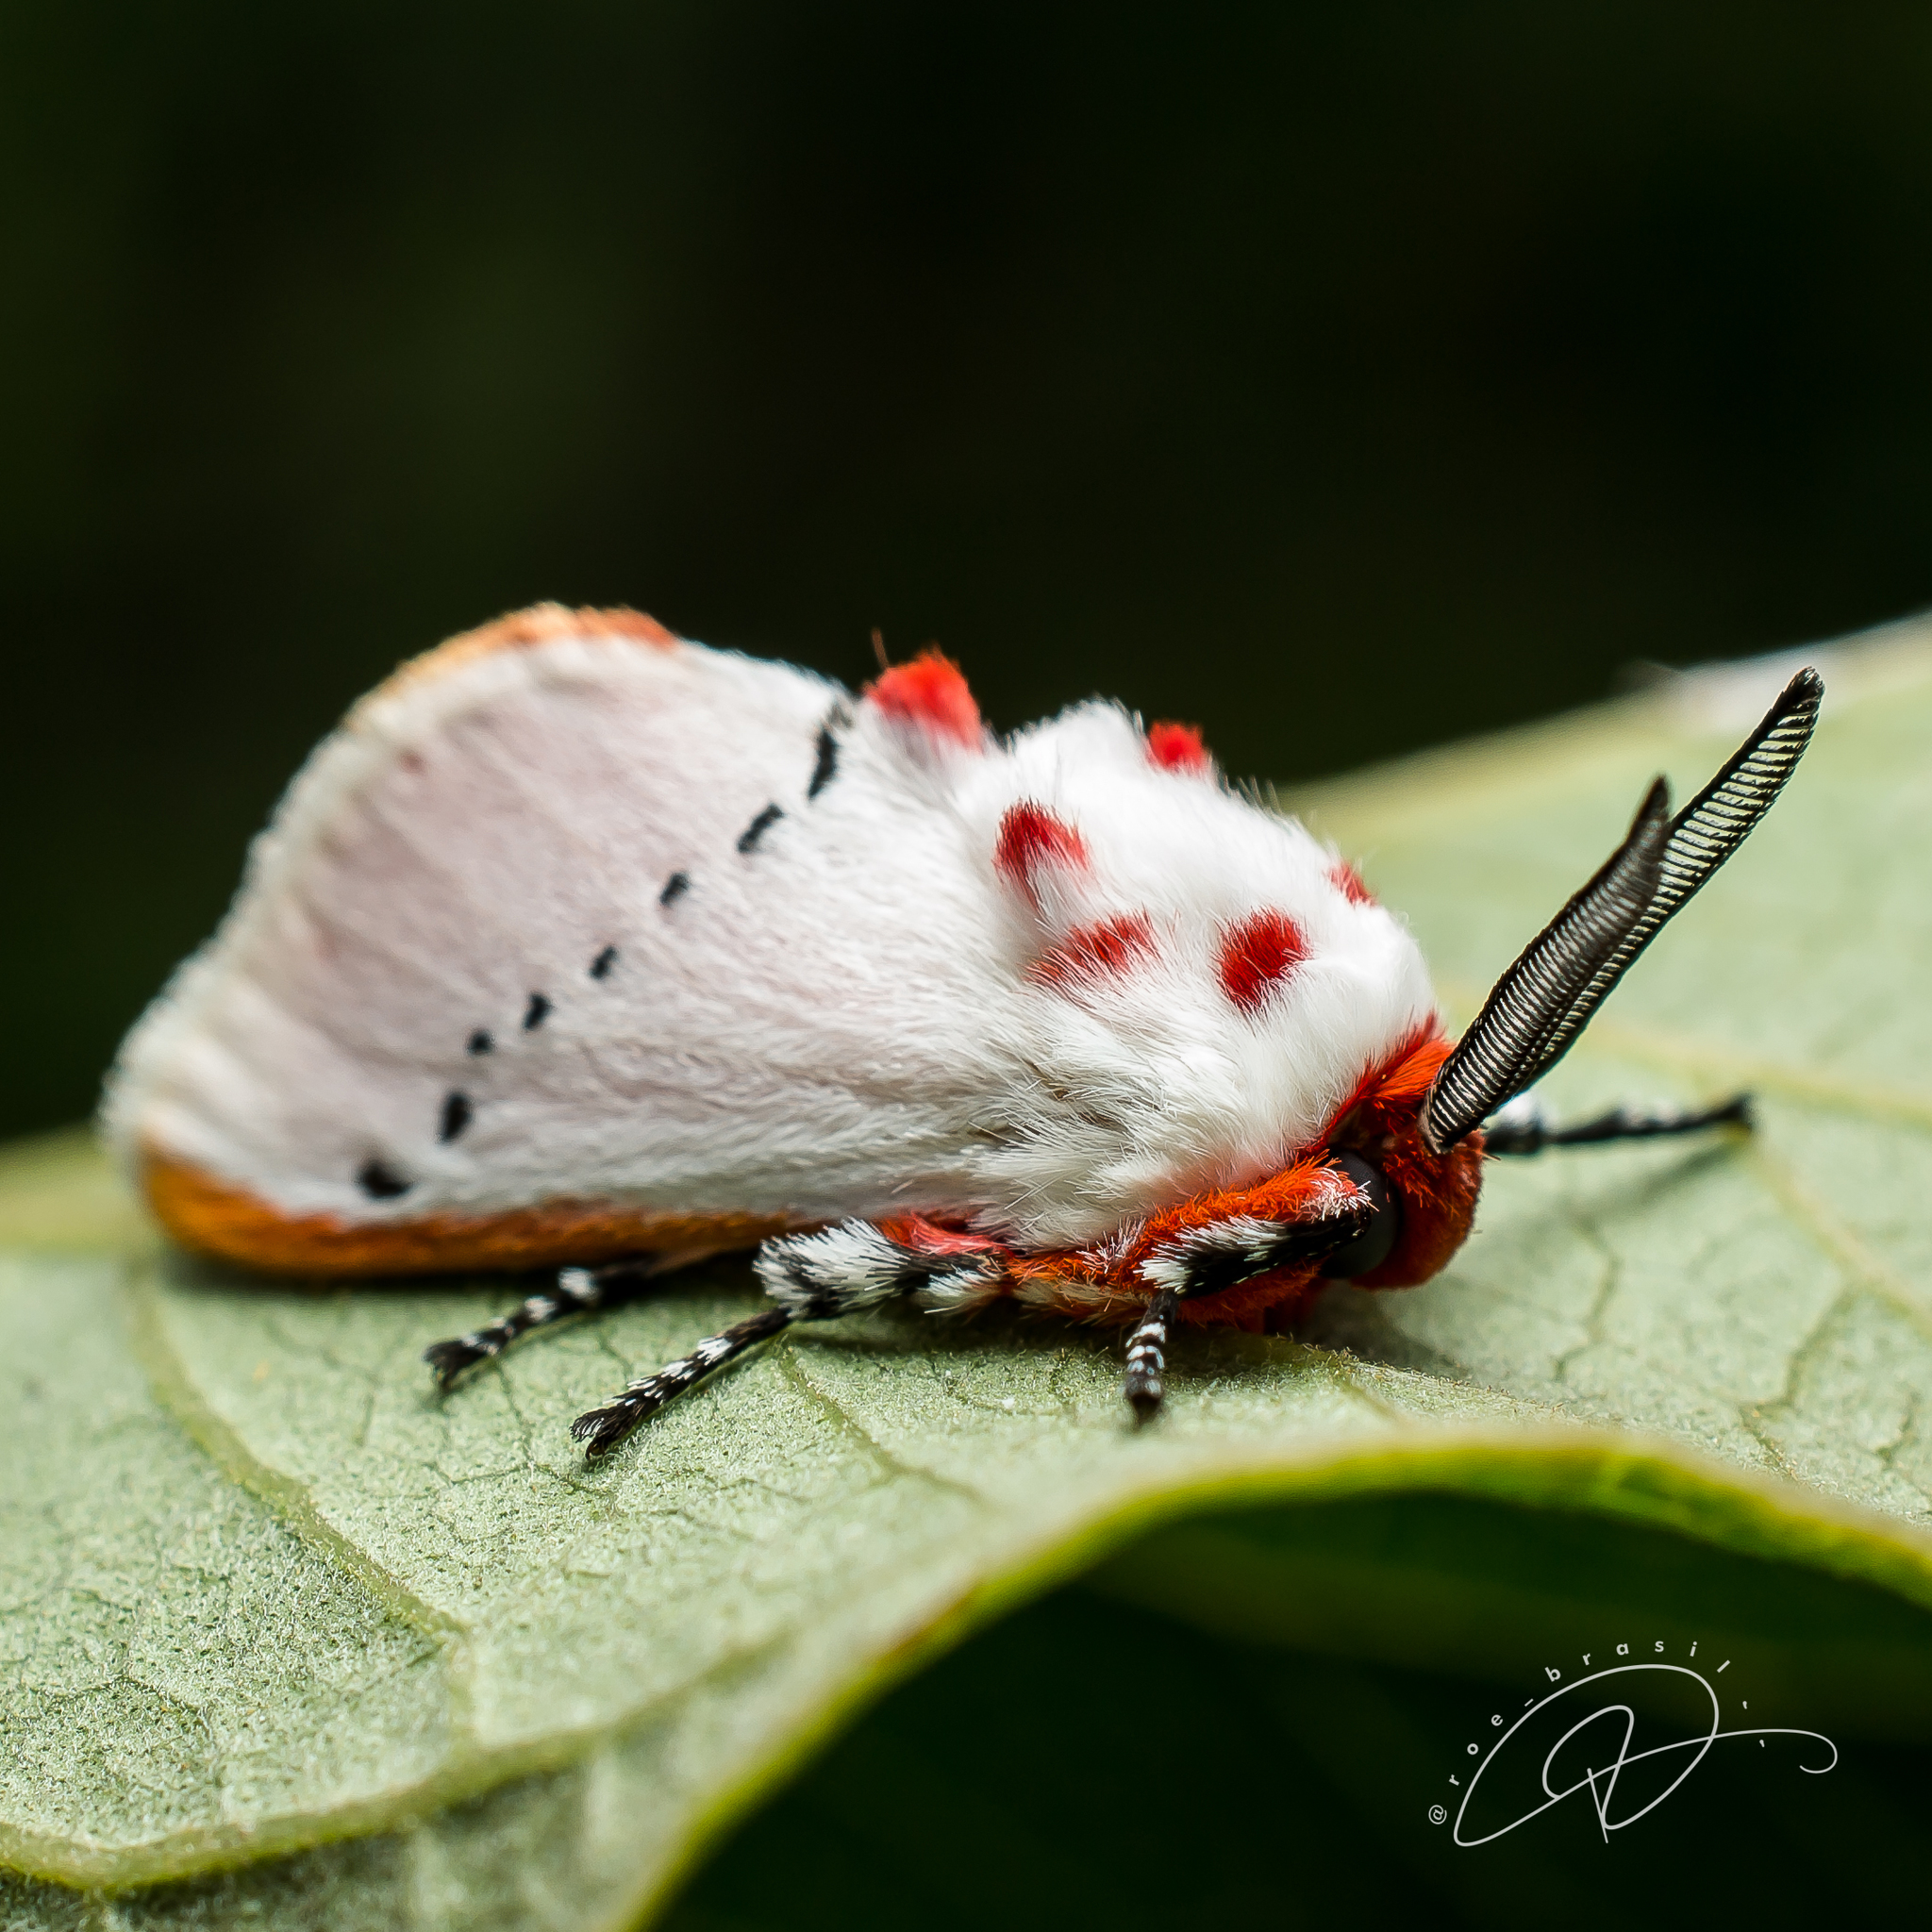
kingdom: Animalia
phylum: Arthropoda
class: Insecta
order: Lepidoptera
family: Megalopygidae
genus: Trosia
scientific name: Trosia misda
